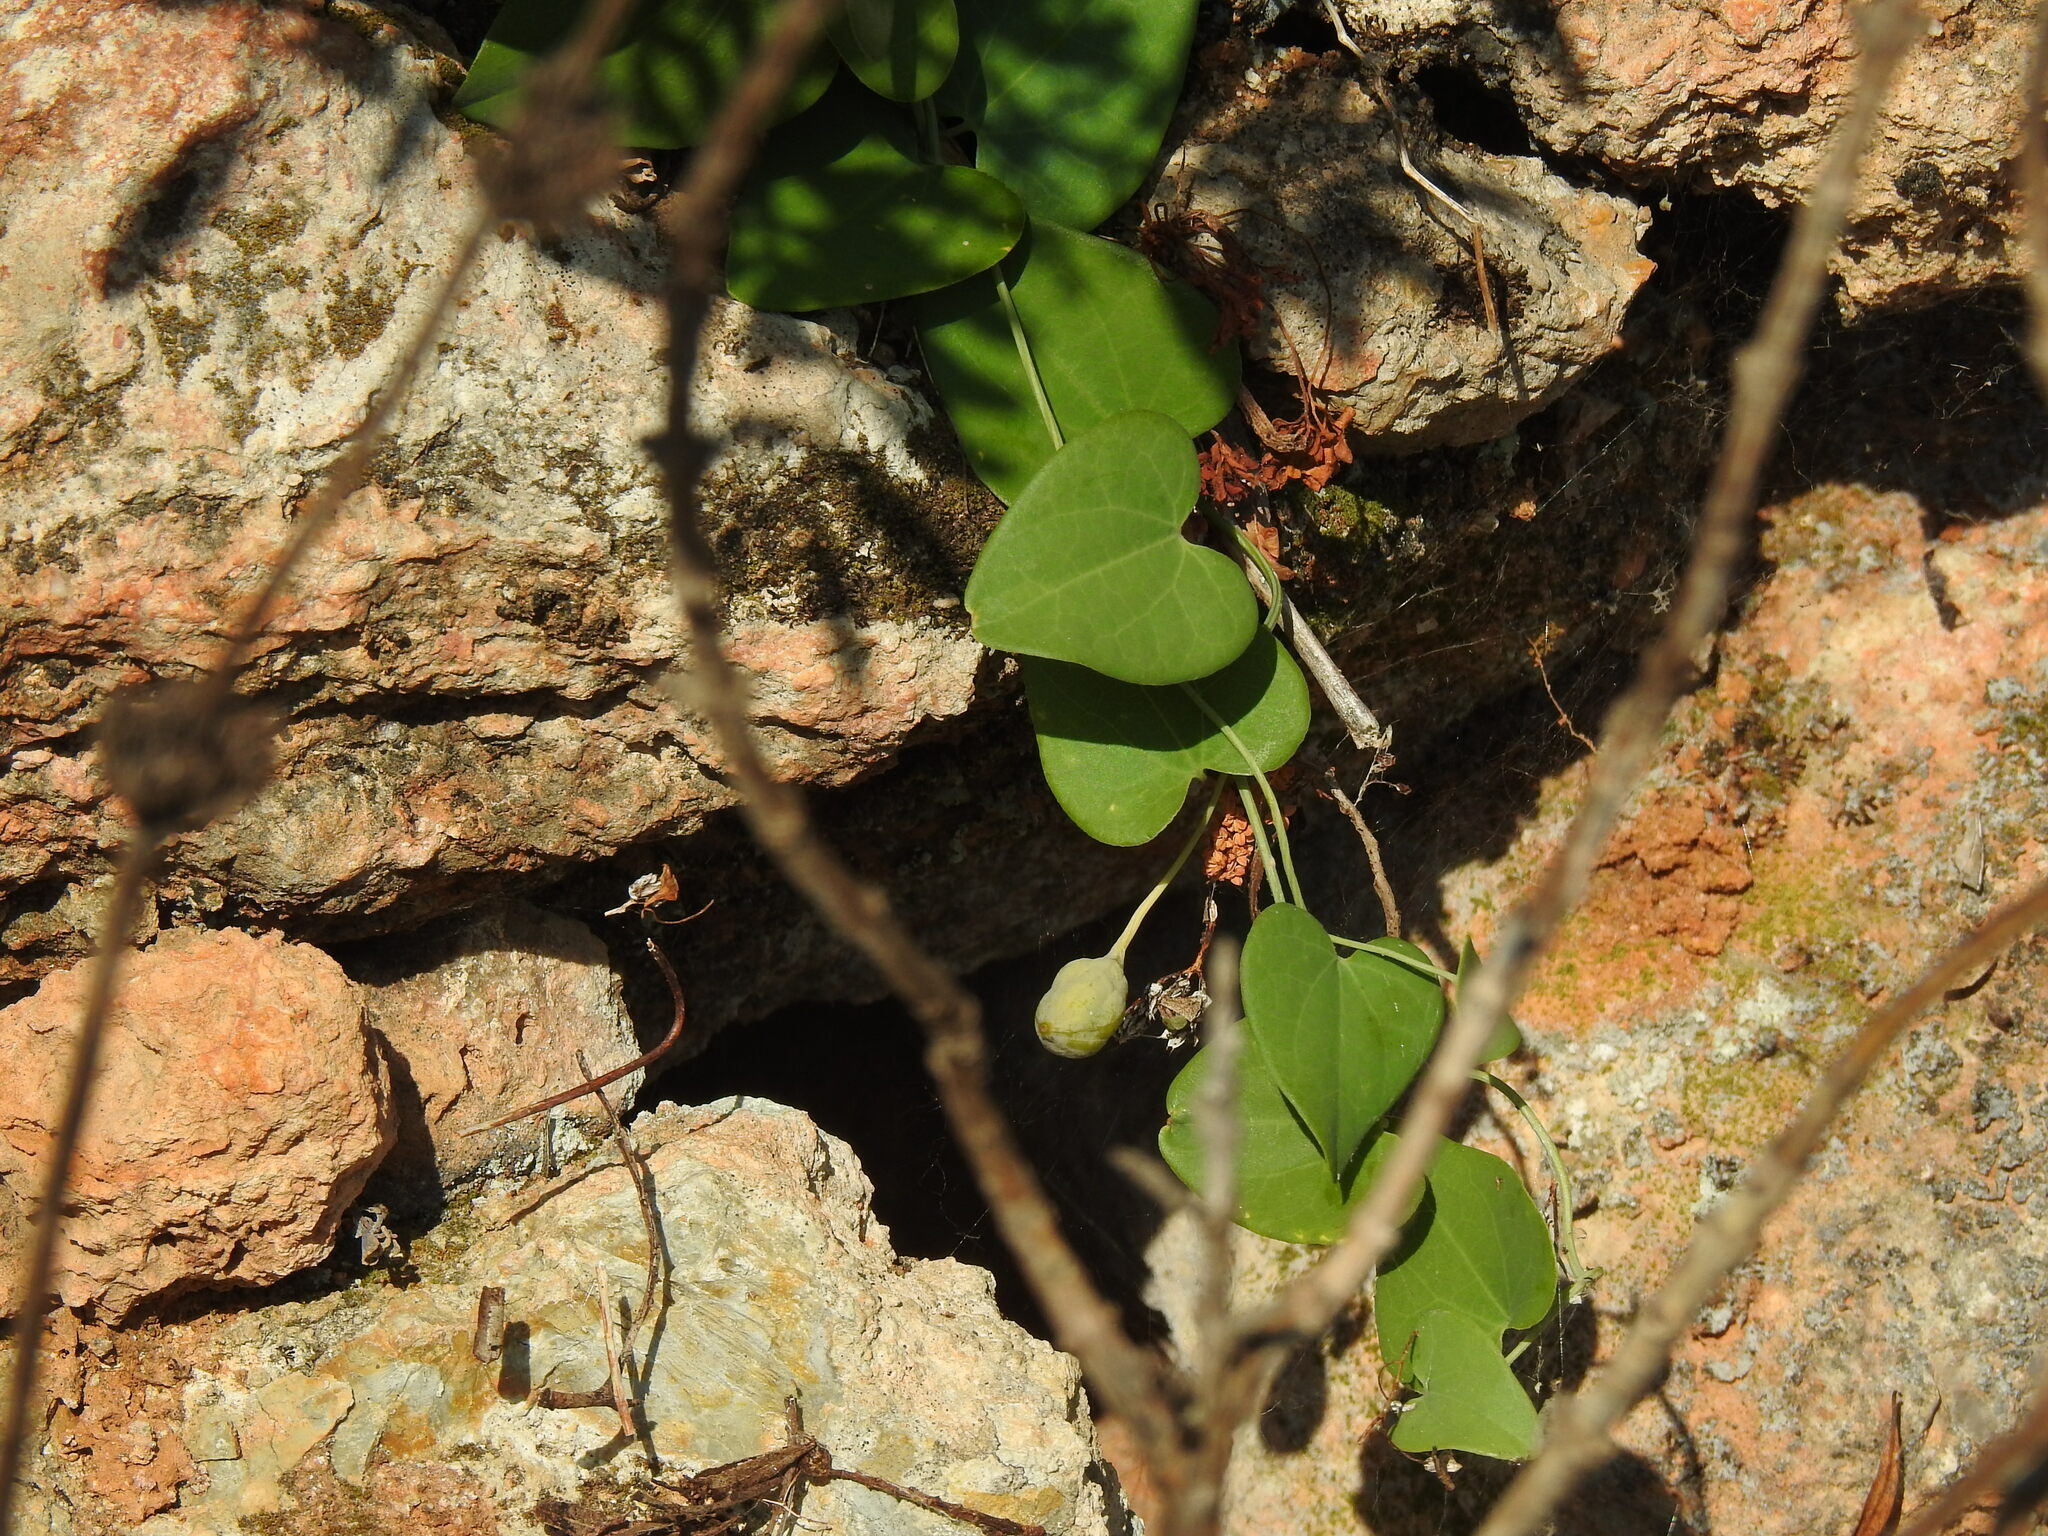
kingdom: Plantae
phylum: Tracheophyta
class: Magnoliopsida
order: Piperales
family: Aristolochiaceae
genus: Aristolochia
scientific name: Aristolochia baetica
